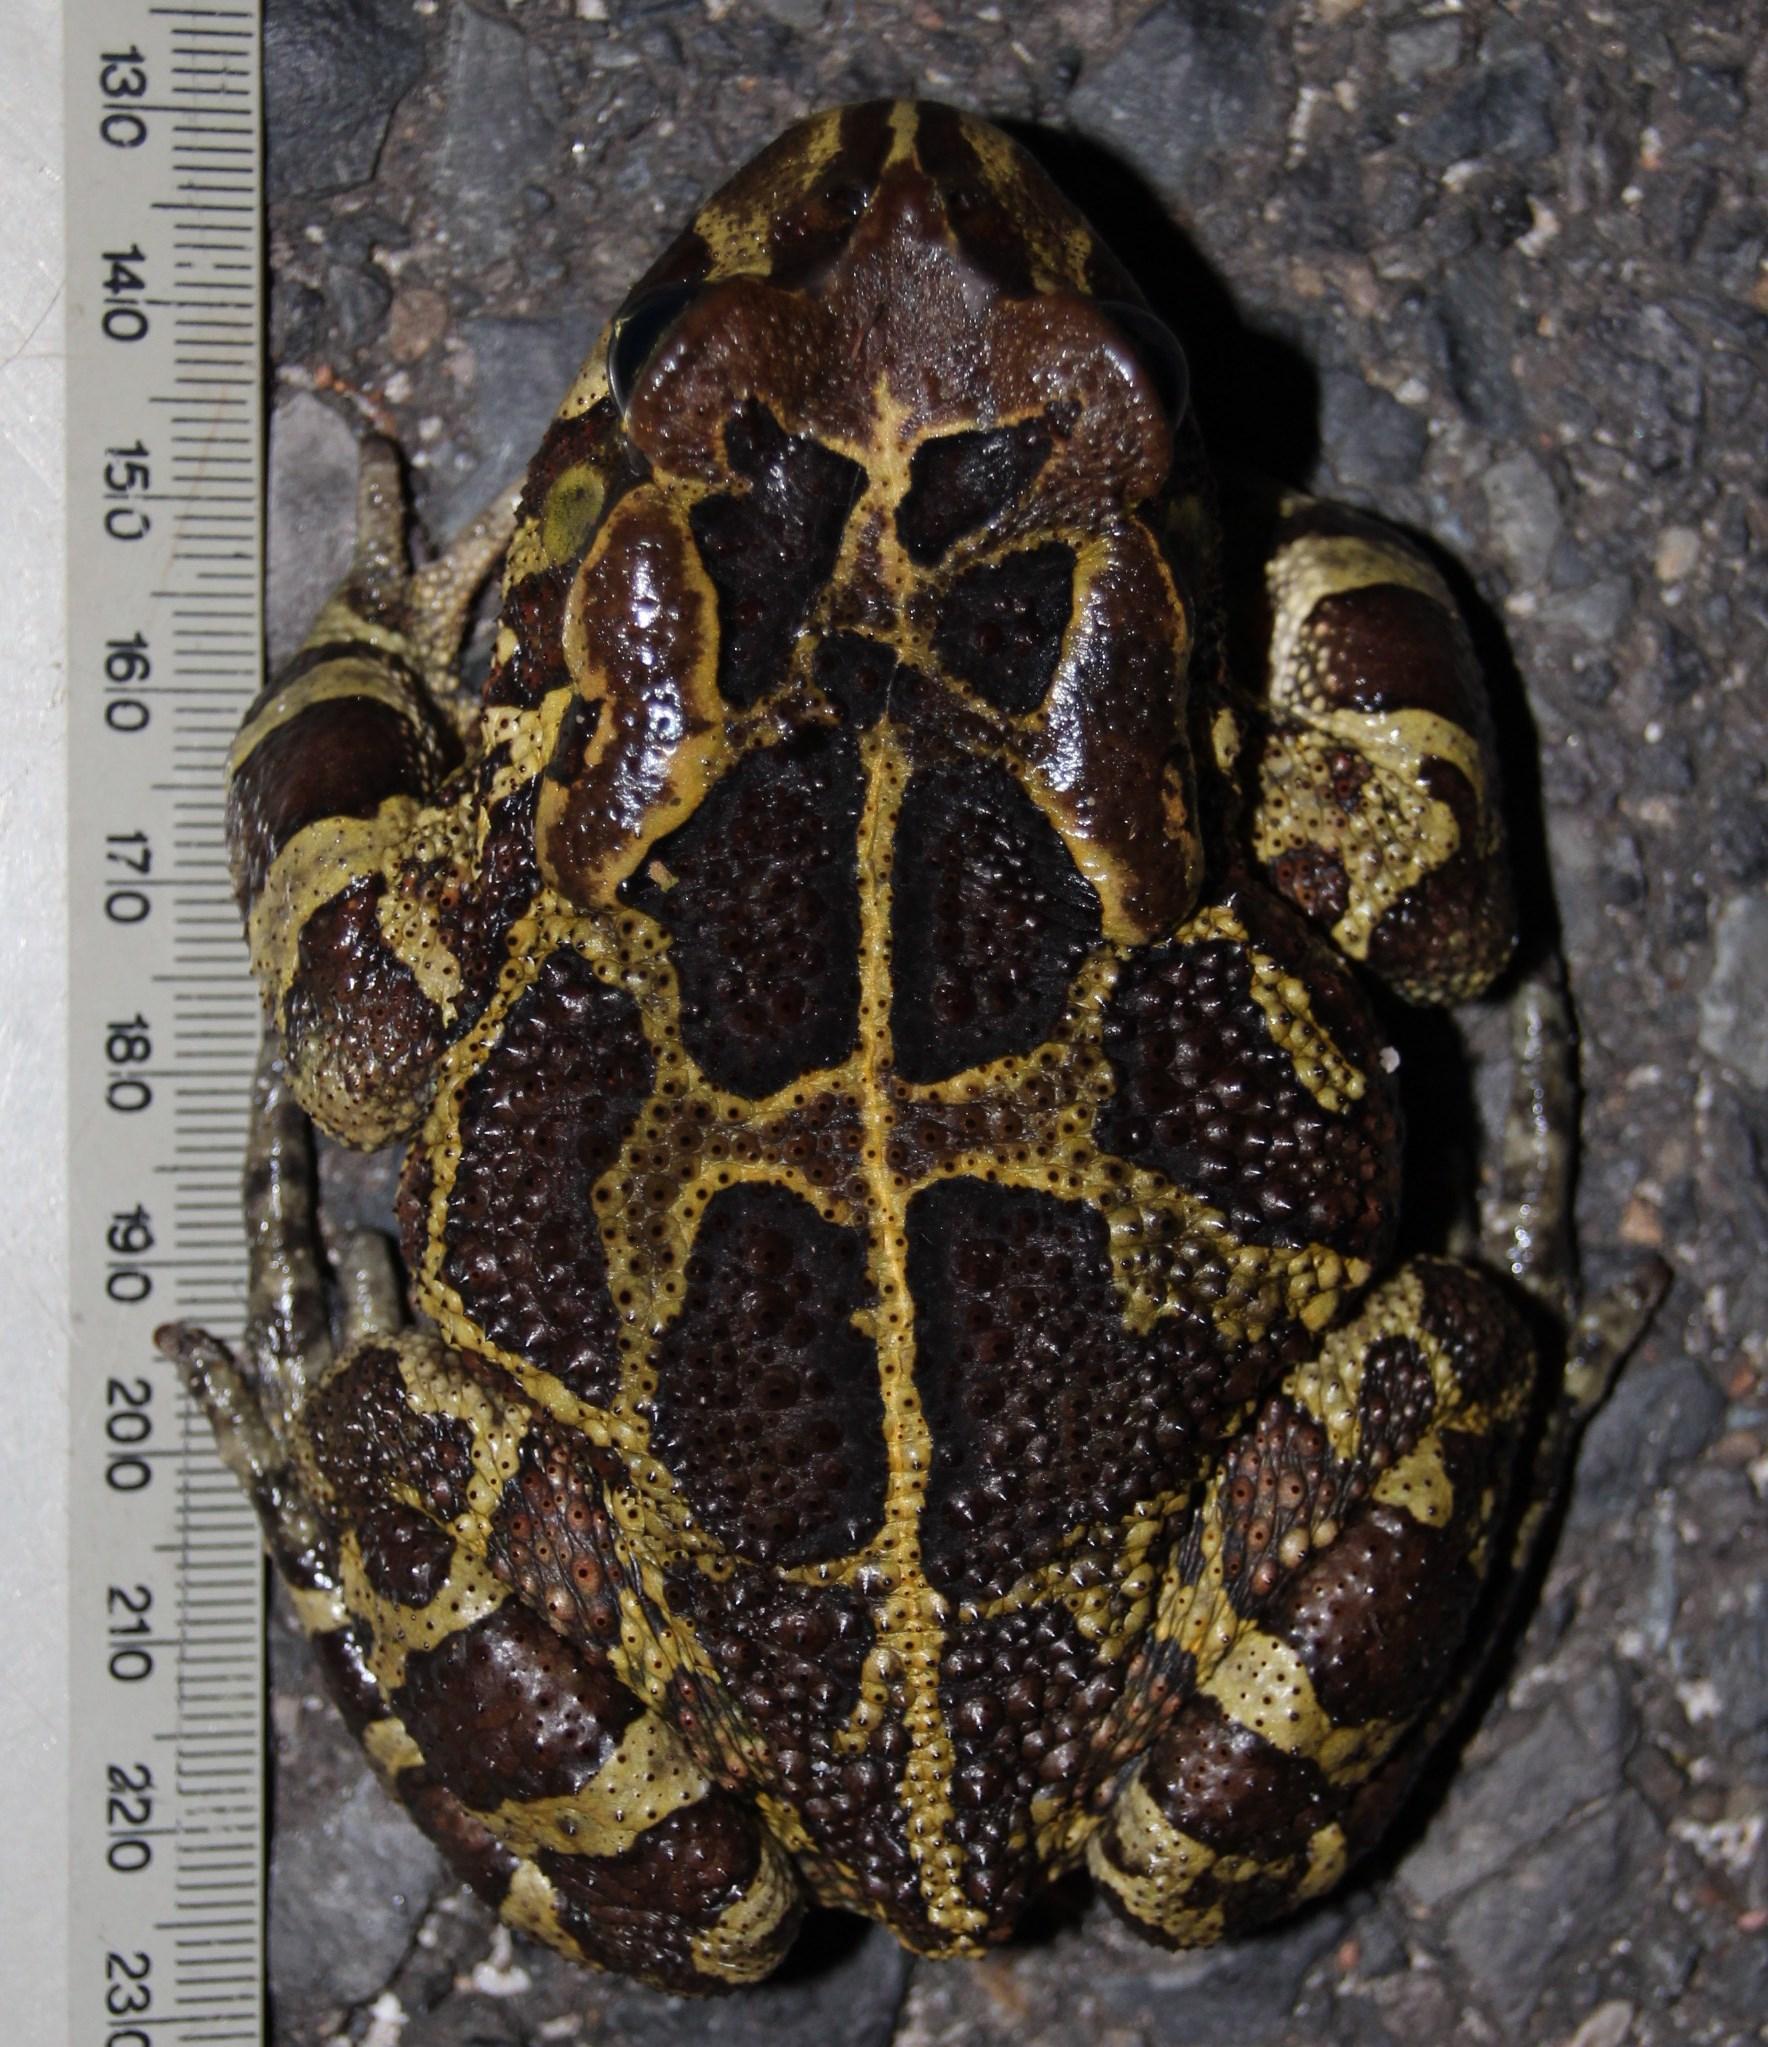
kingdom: Animalia
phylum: Chordata
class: Amphibia
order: Anura
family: Bufonidae
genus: Sclerophrys
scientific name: Sclerophrys pantherina
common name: Panther toad
